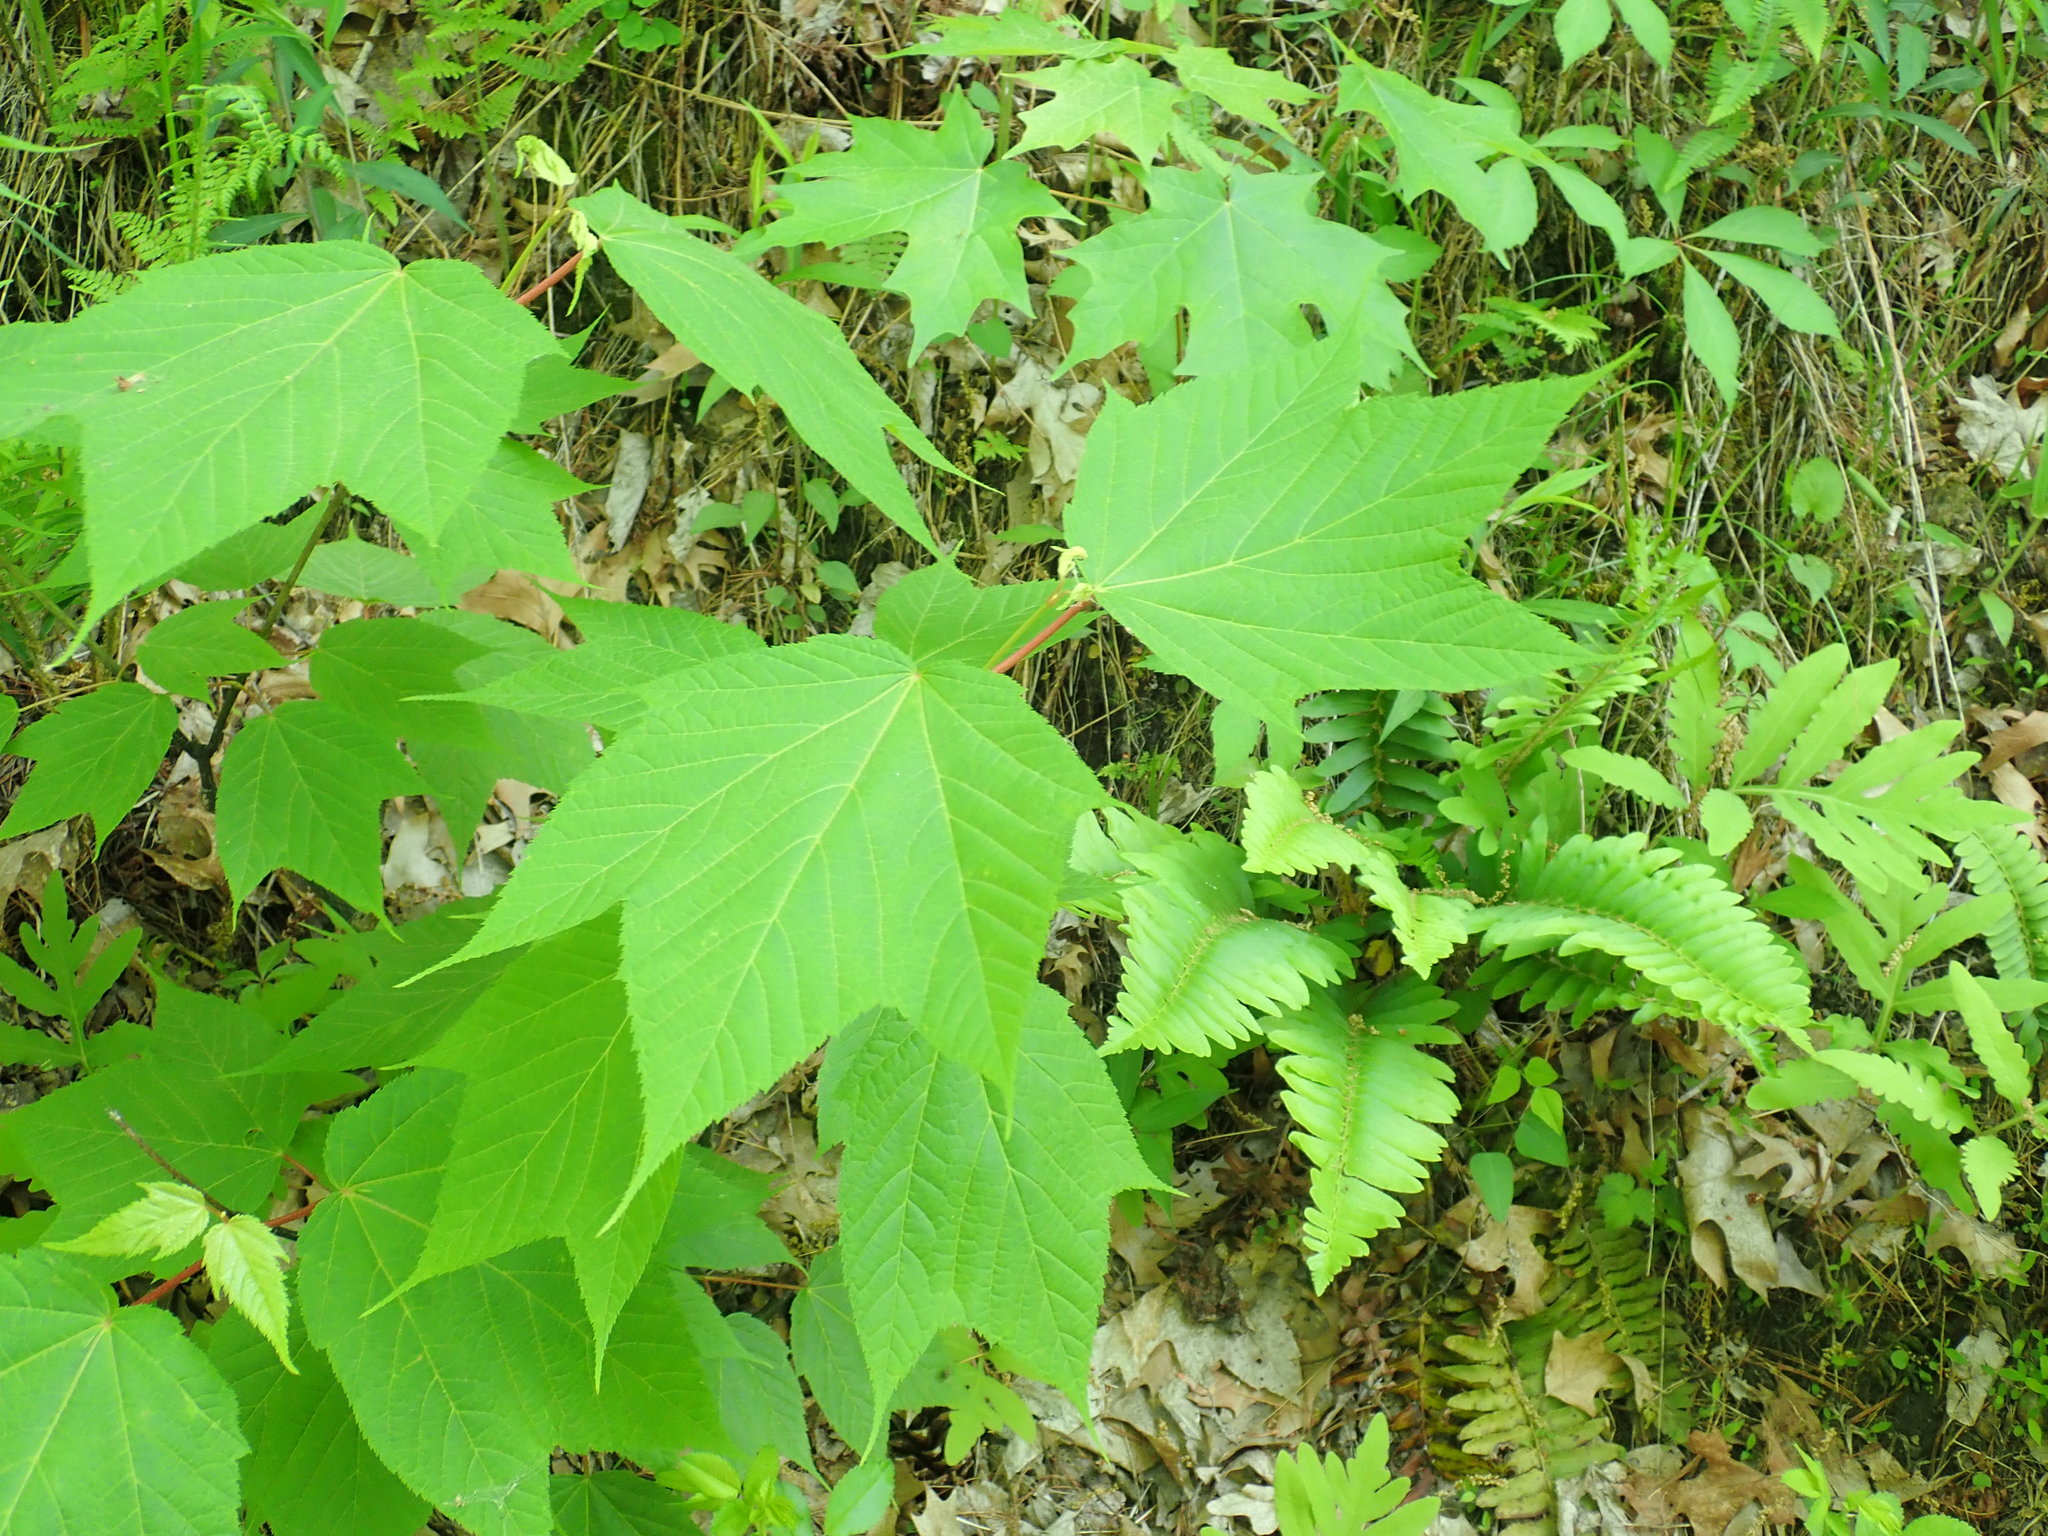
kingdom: Plantae
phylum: Tracheophyta
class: Magnoliopsida
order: Sapindales
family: Sapindaceae
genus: Acer
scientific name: Acer pensylvanicum
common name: Moosewood
